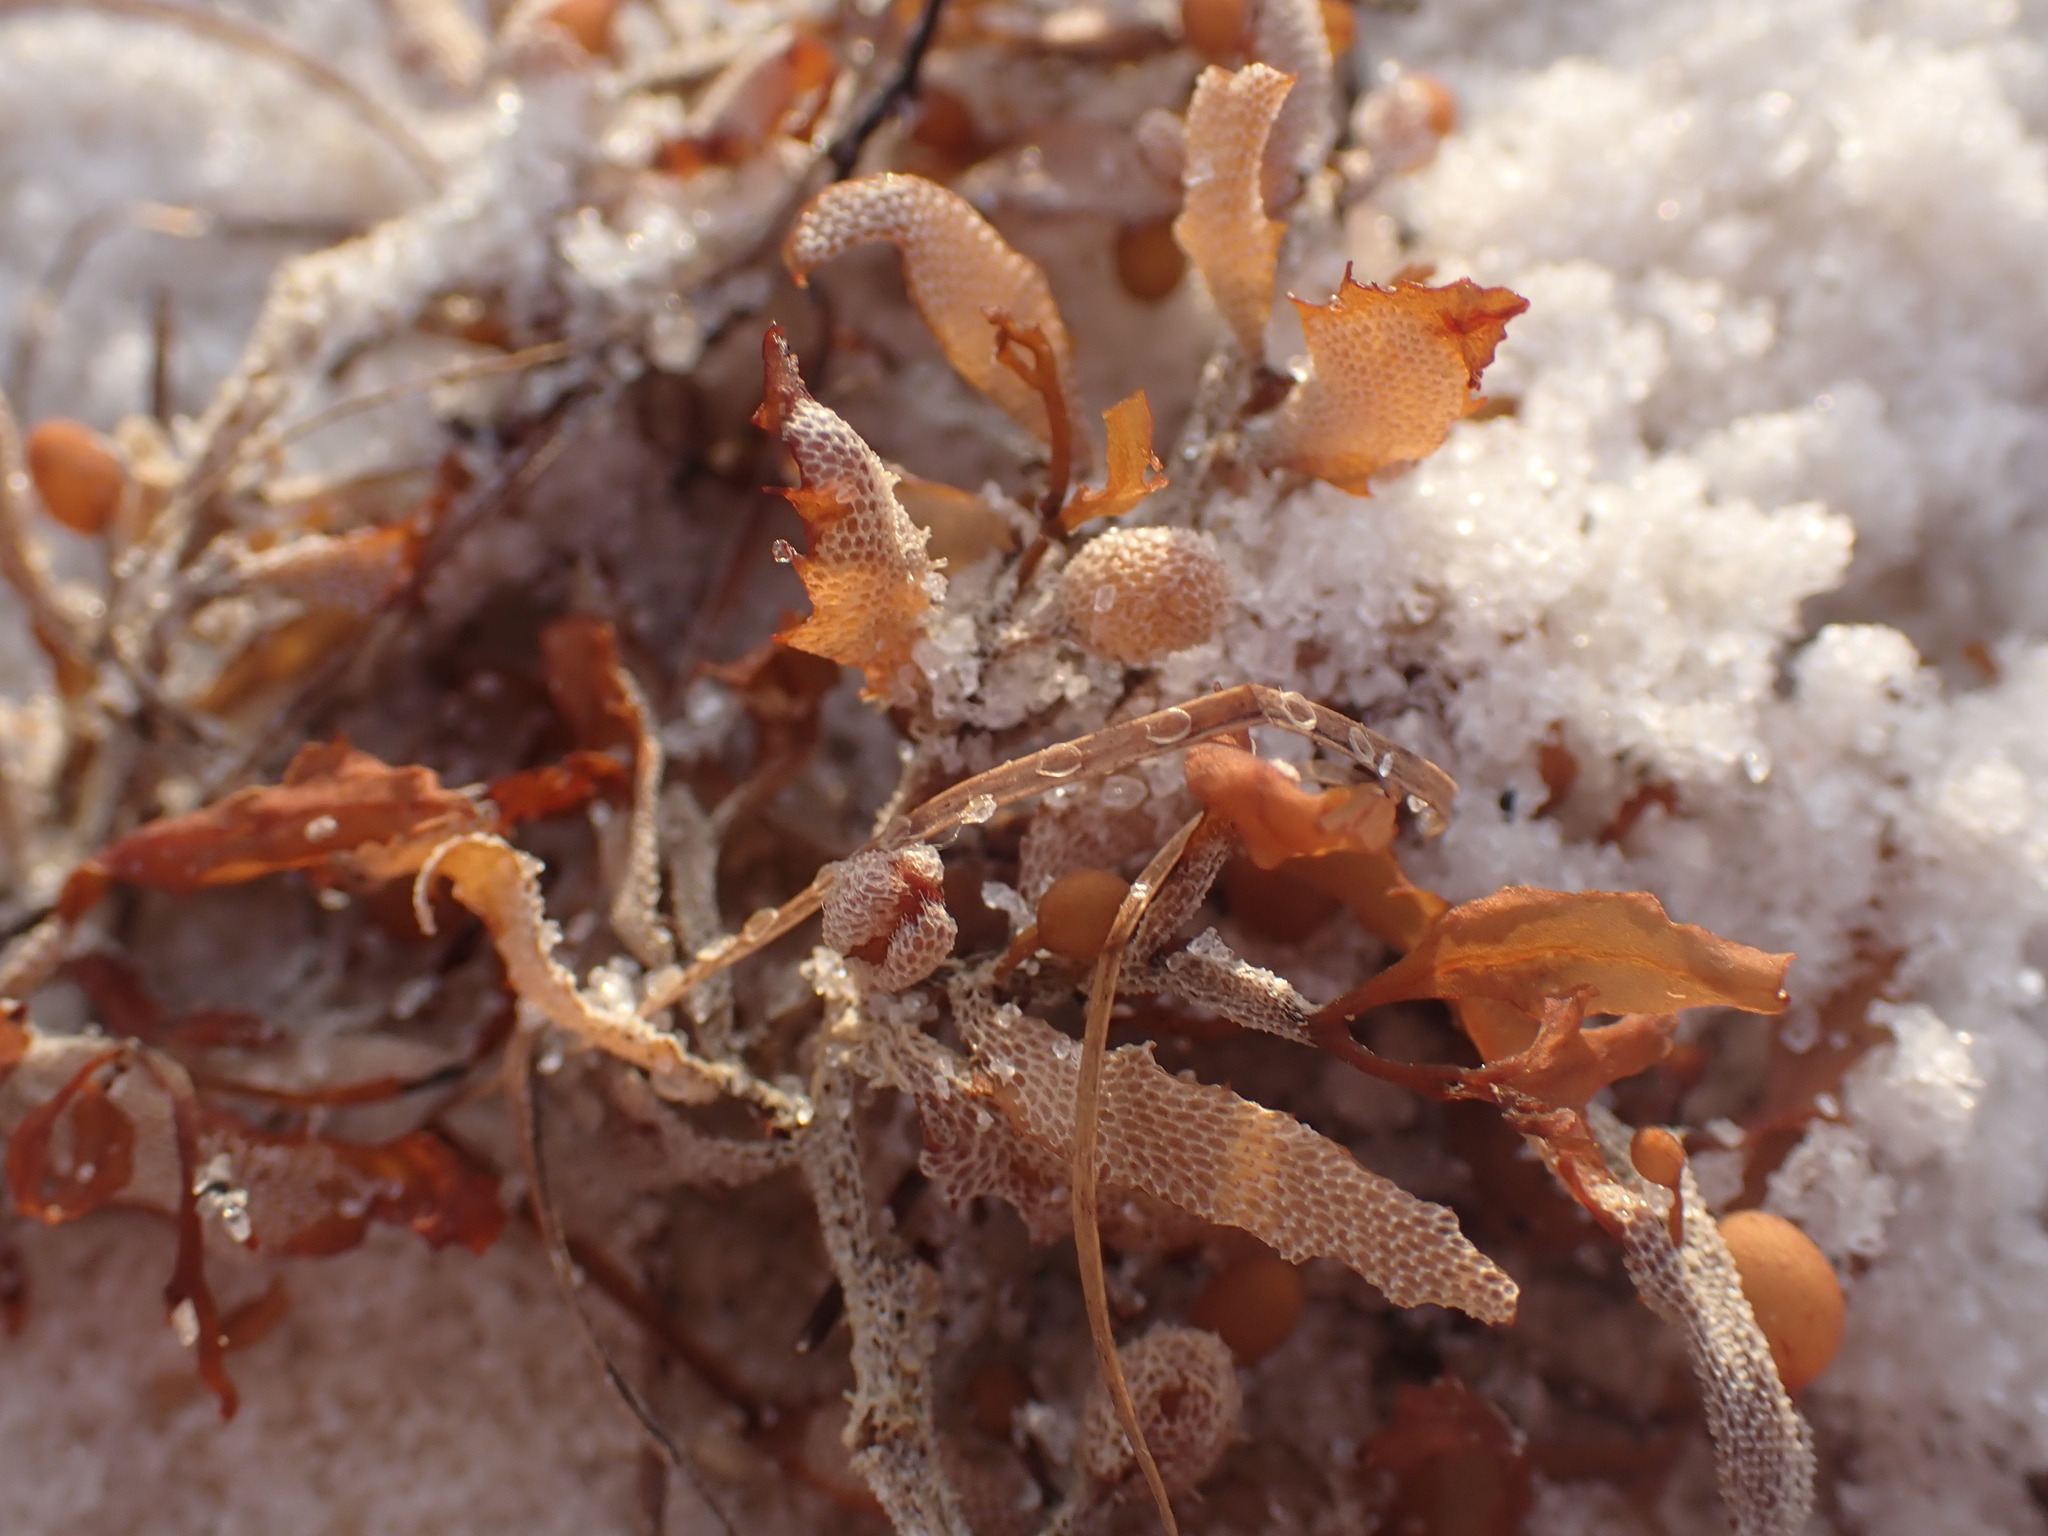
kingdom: Chromista
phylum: Ochrophyta
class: Phaeophyceae
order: Fucales
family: Sargassaceae
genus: Sargassum
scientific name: Sargassum fluitans
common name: Sargassum seaweed
